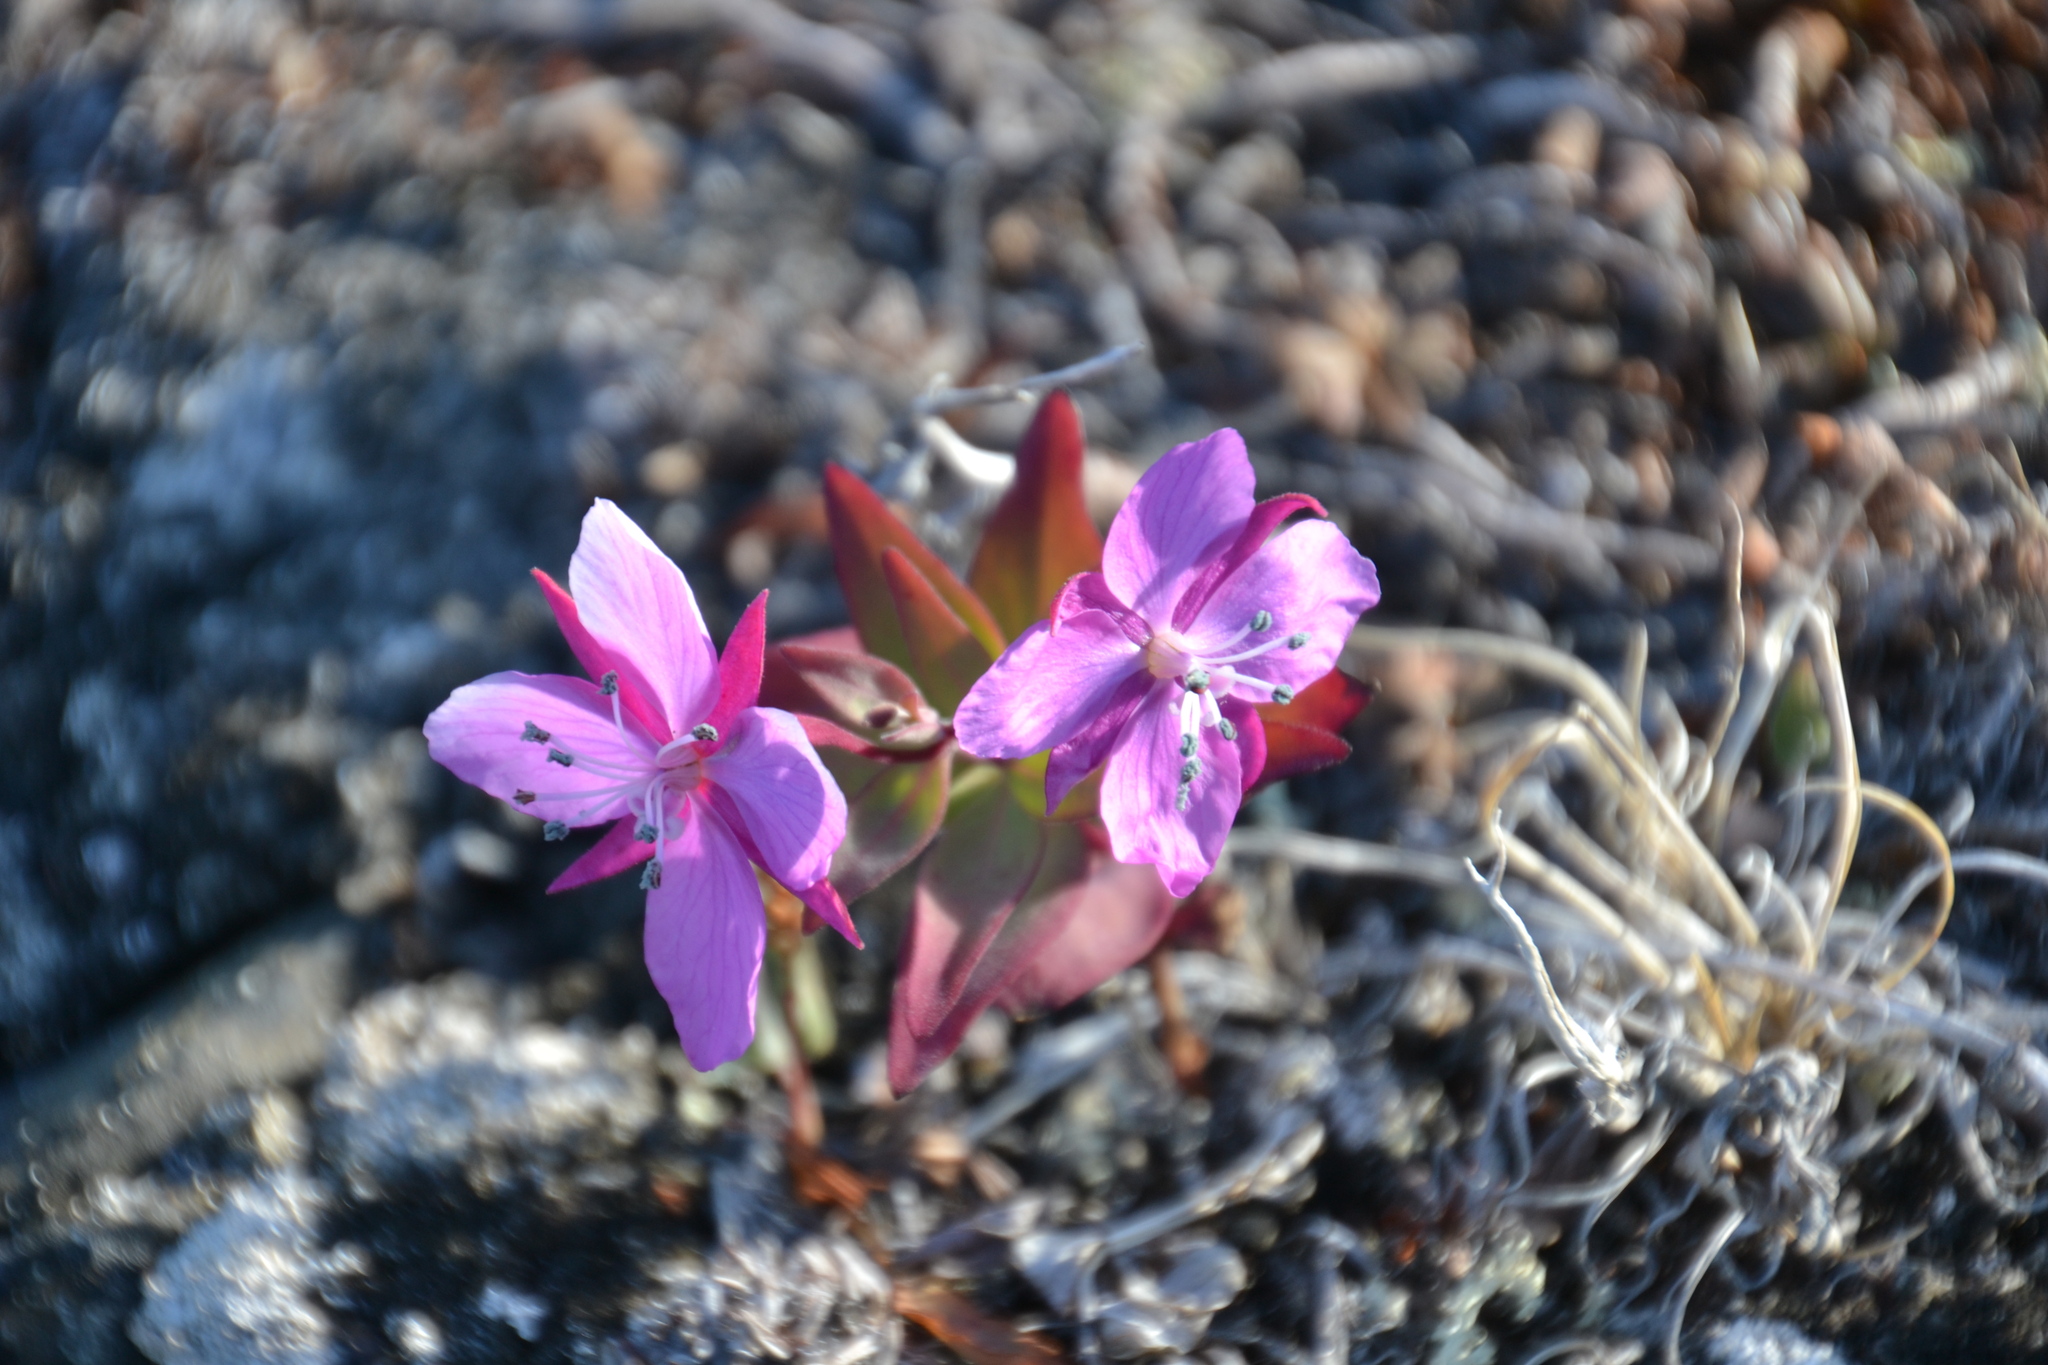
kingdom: Plantae
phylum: Tracheophyta
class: Magnoliopsida
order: Myrtales
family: Onagraceae
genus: Chamaenerion
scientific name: Chamaenerion latifolium
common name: Dwarf fireweed
